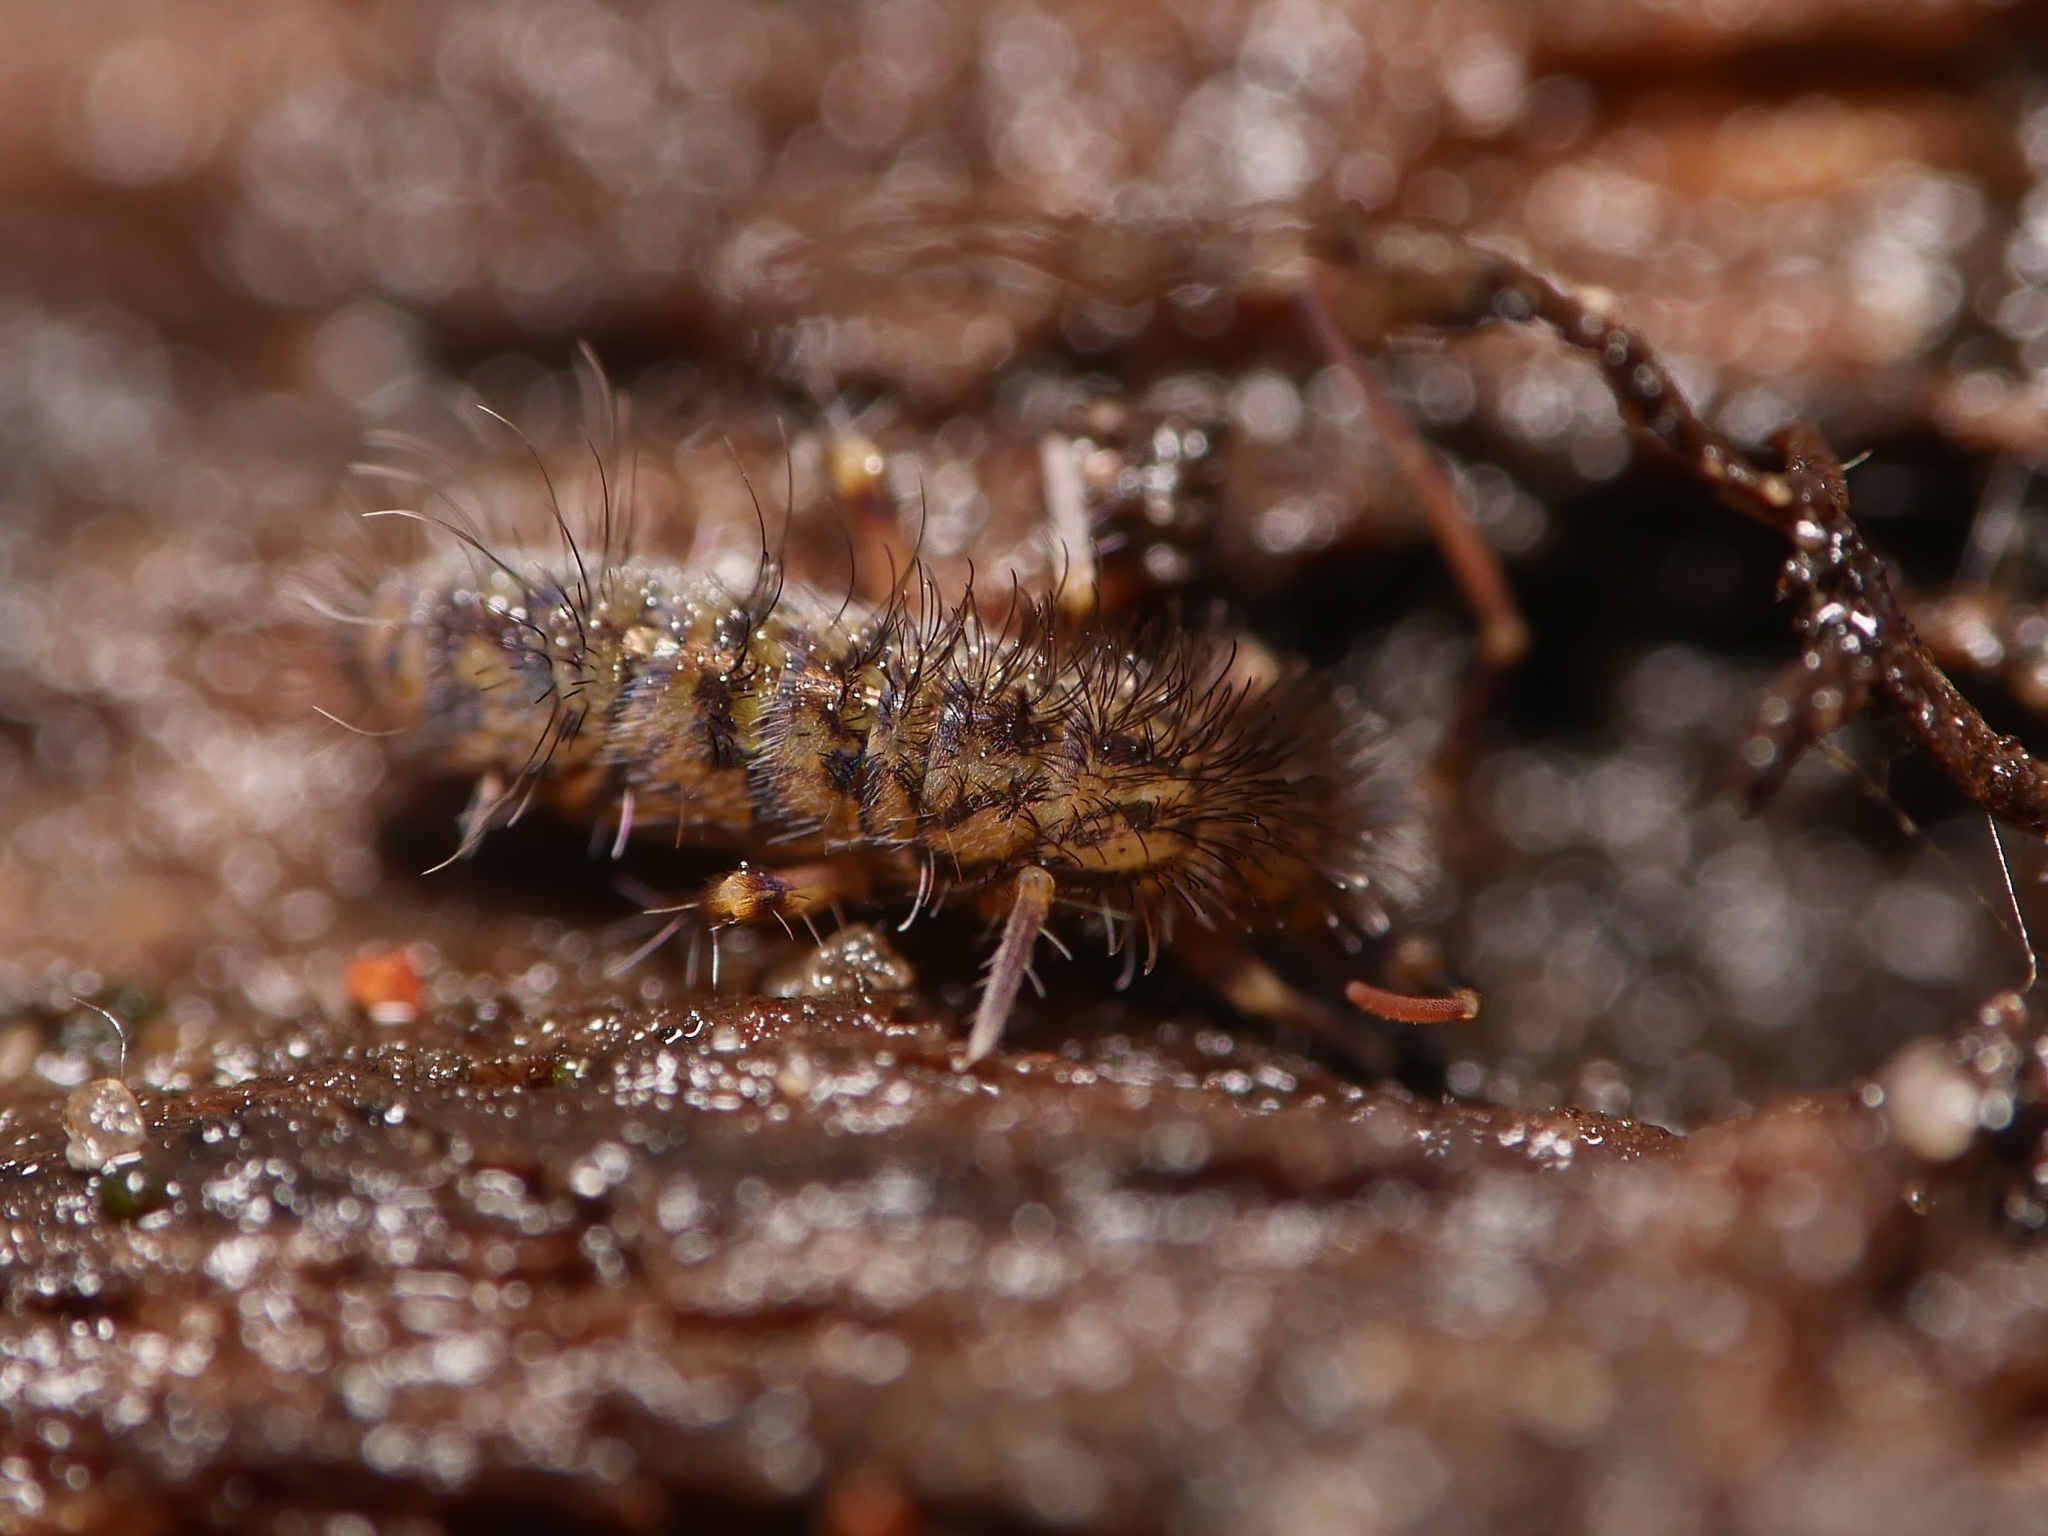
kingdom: Animalia
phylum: Arthropoda
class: Collembola
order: Entomobryomorpha
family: Orchesellidae
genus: Orchesella
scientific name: Orchesella villosa
